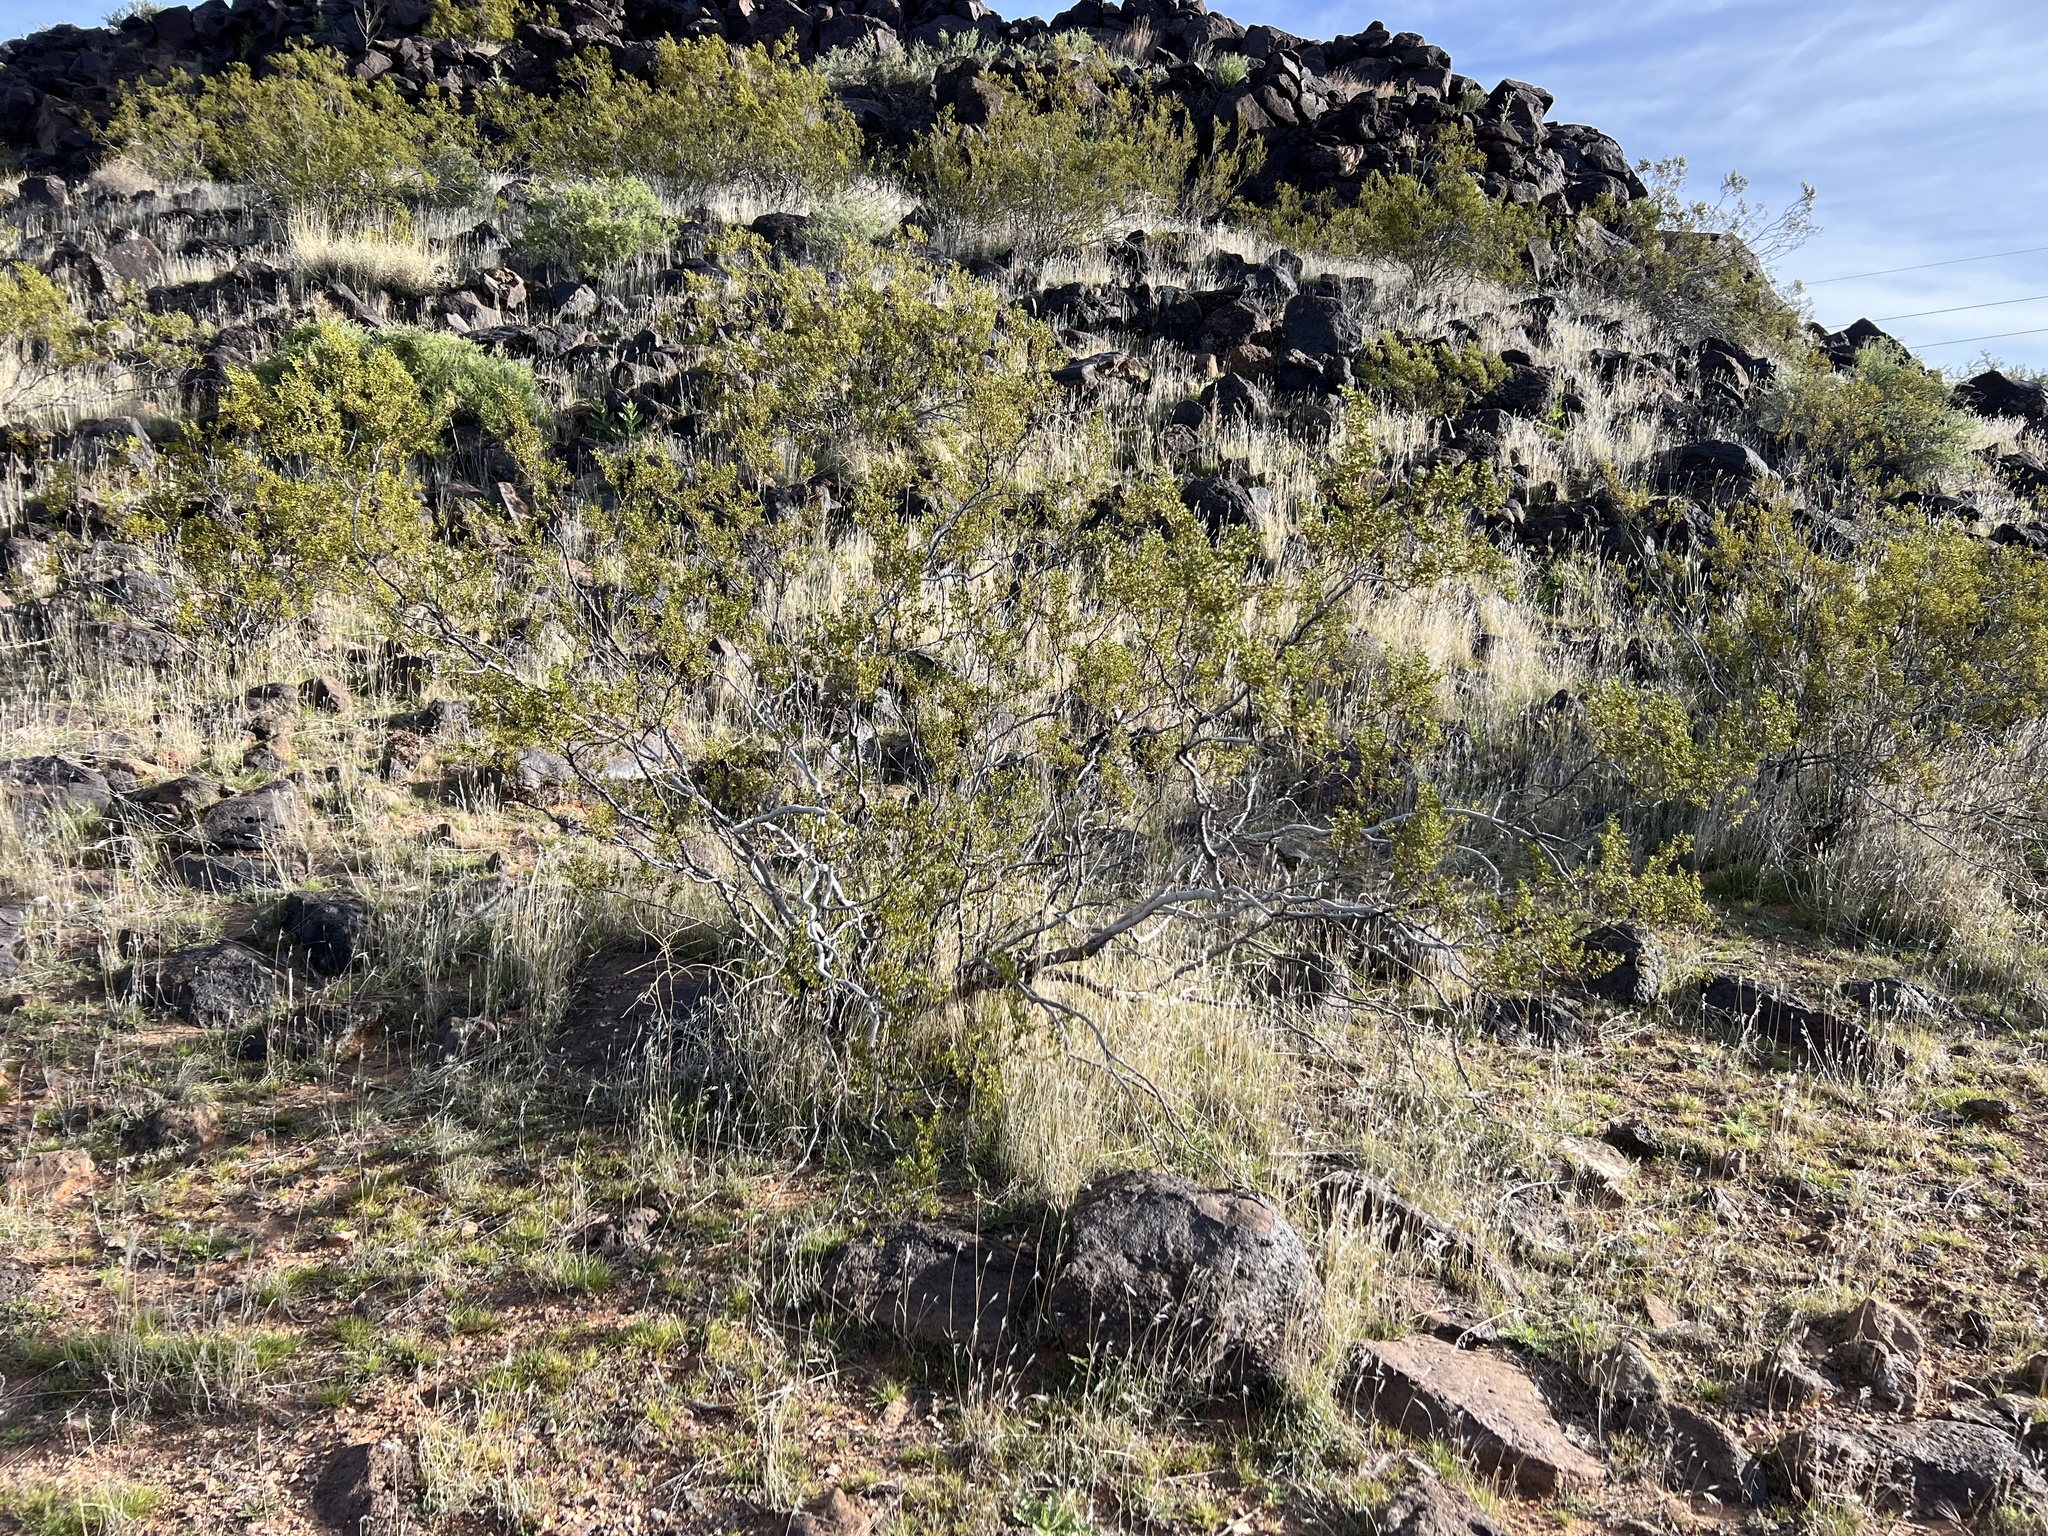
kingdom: Plantae
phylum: Tracheophyta
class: Magnoliopsida
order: Zygophyllales
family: Zygophyllaceae
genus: Larrea
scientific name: Larrea tridentata
